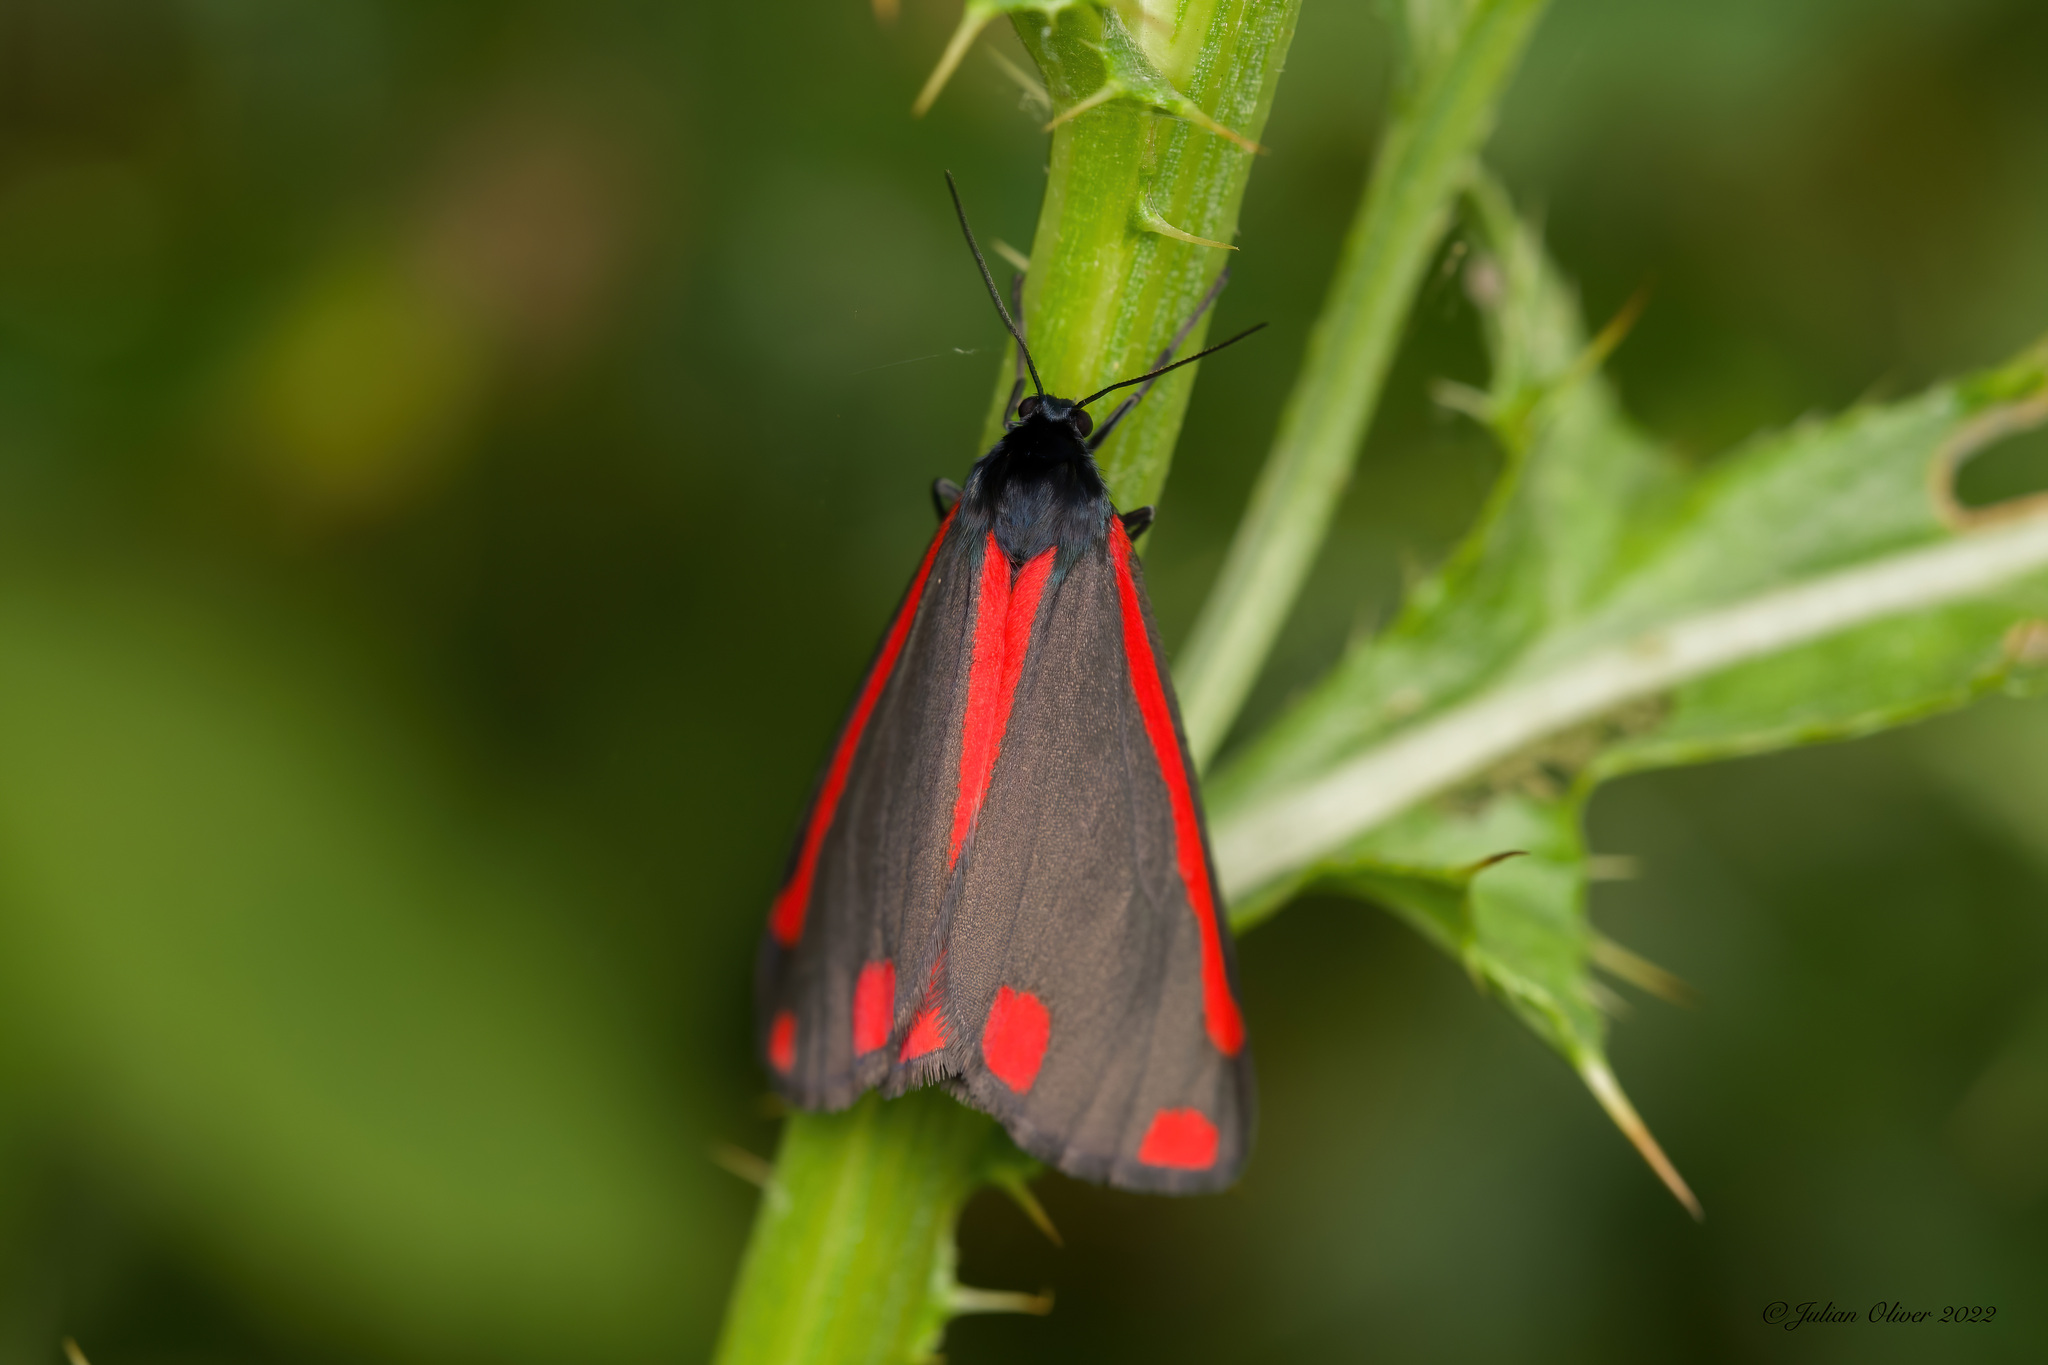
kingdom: Animalia
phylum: Arthropoda
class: Insecta
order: Lepidoptera
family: Erebidae
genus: Tyria
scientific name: Tyria jacobaeae
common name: Cinnabar
